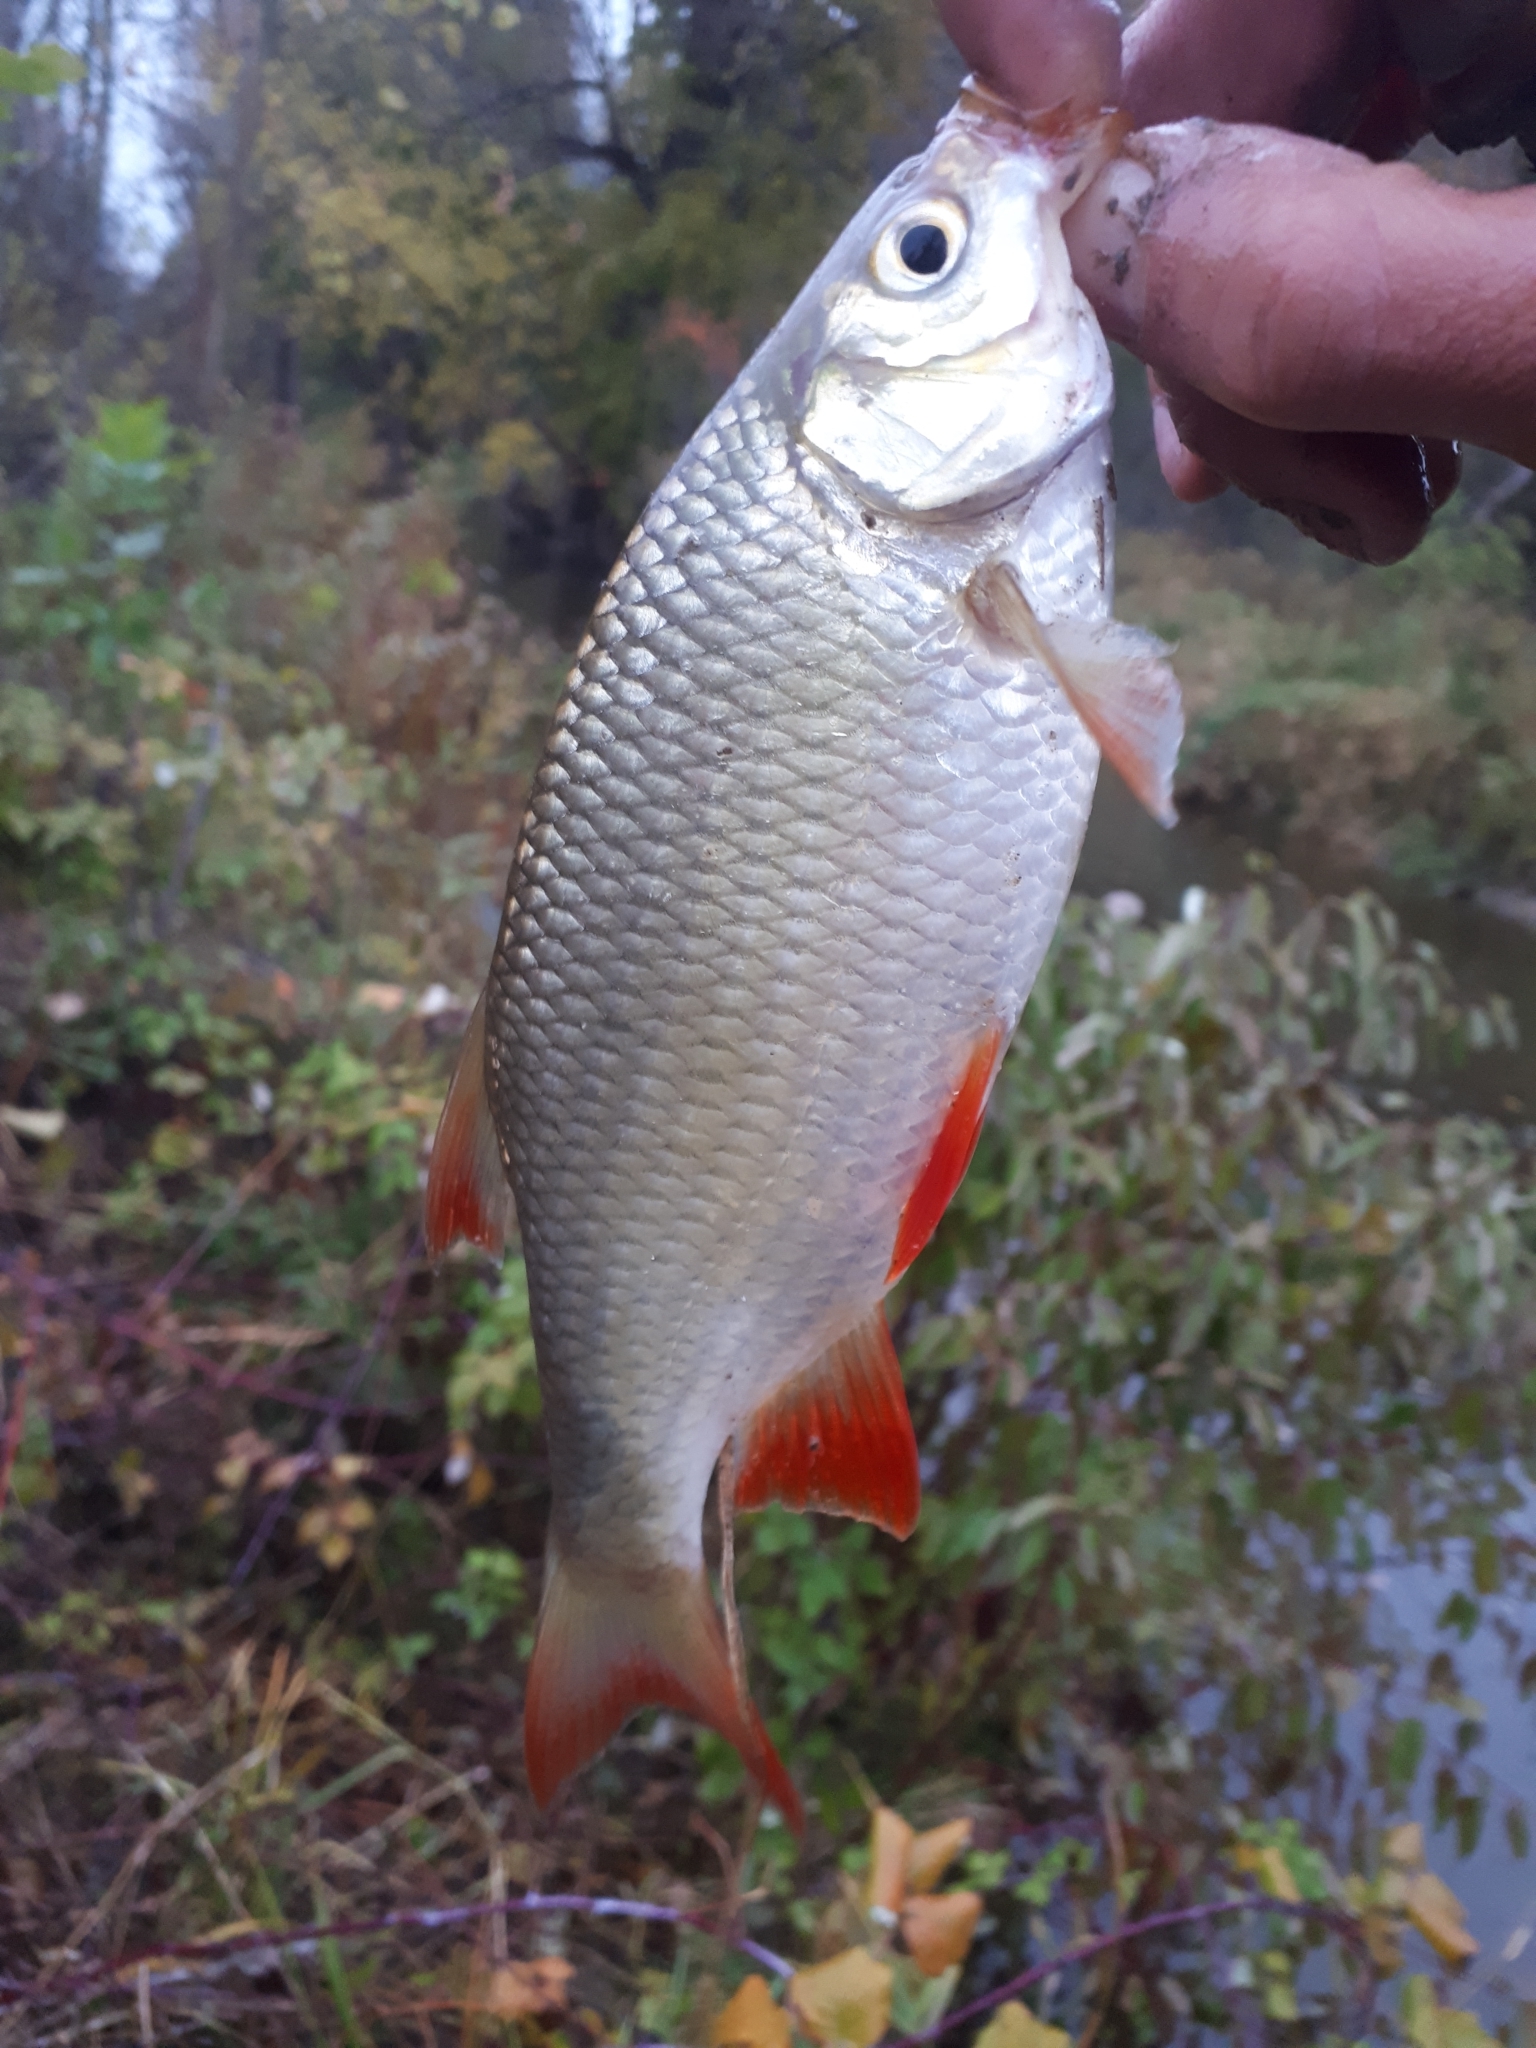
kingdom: Animalia
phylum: Chordata
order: Cypriniformes
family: Cyprinidae
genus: Scardinius
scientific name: Scardinius erythrophthalmus
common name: Rudd
